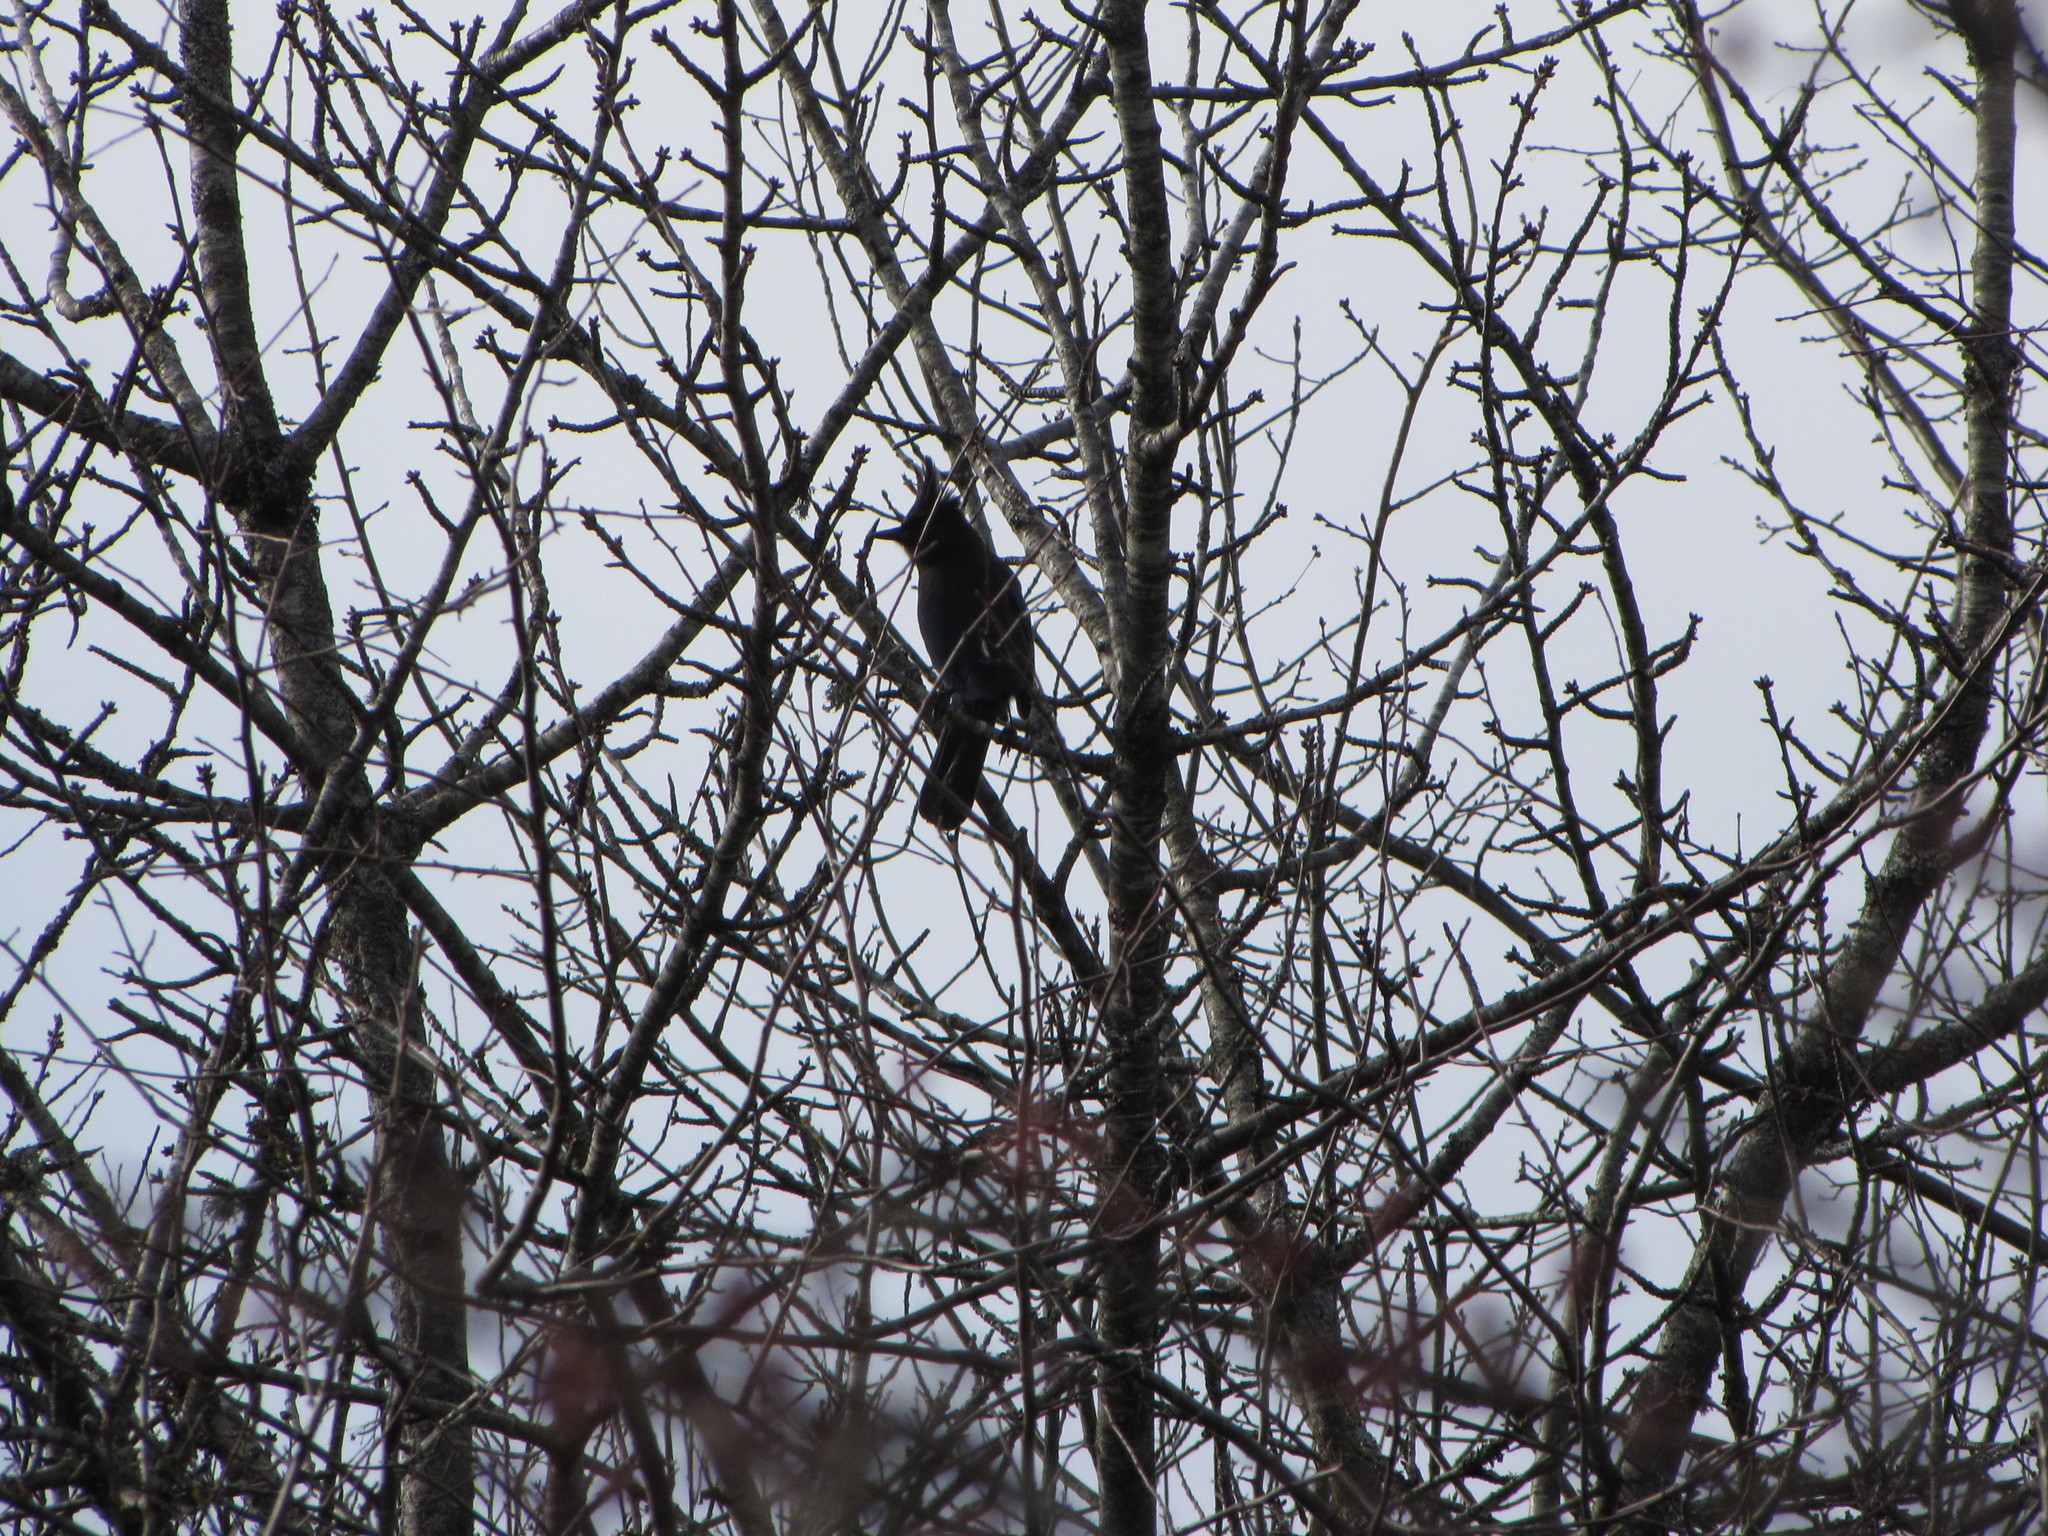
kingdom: Animalia
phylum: Chordata
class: Aves
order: Passeriformes
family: Corvidae
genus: Cyanocitta
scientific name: Cyanocitta stelleri
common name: Steller's jay
